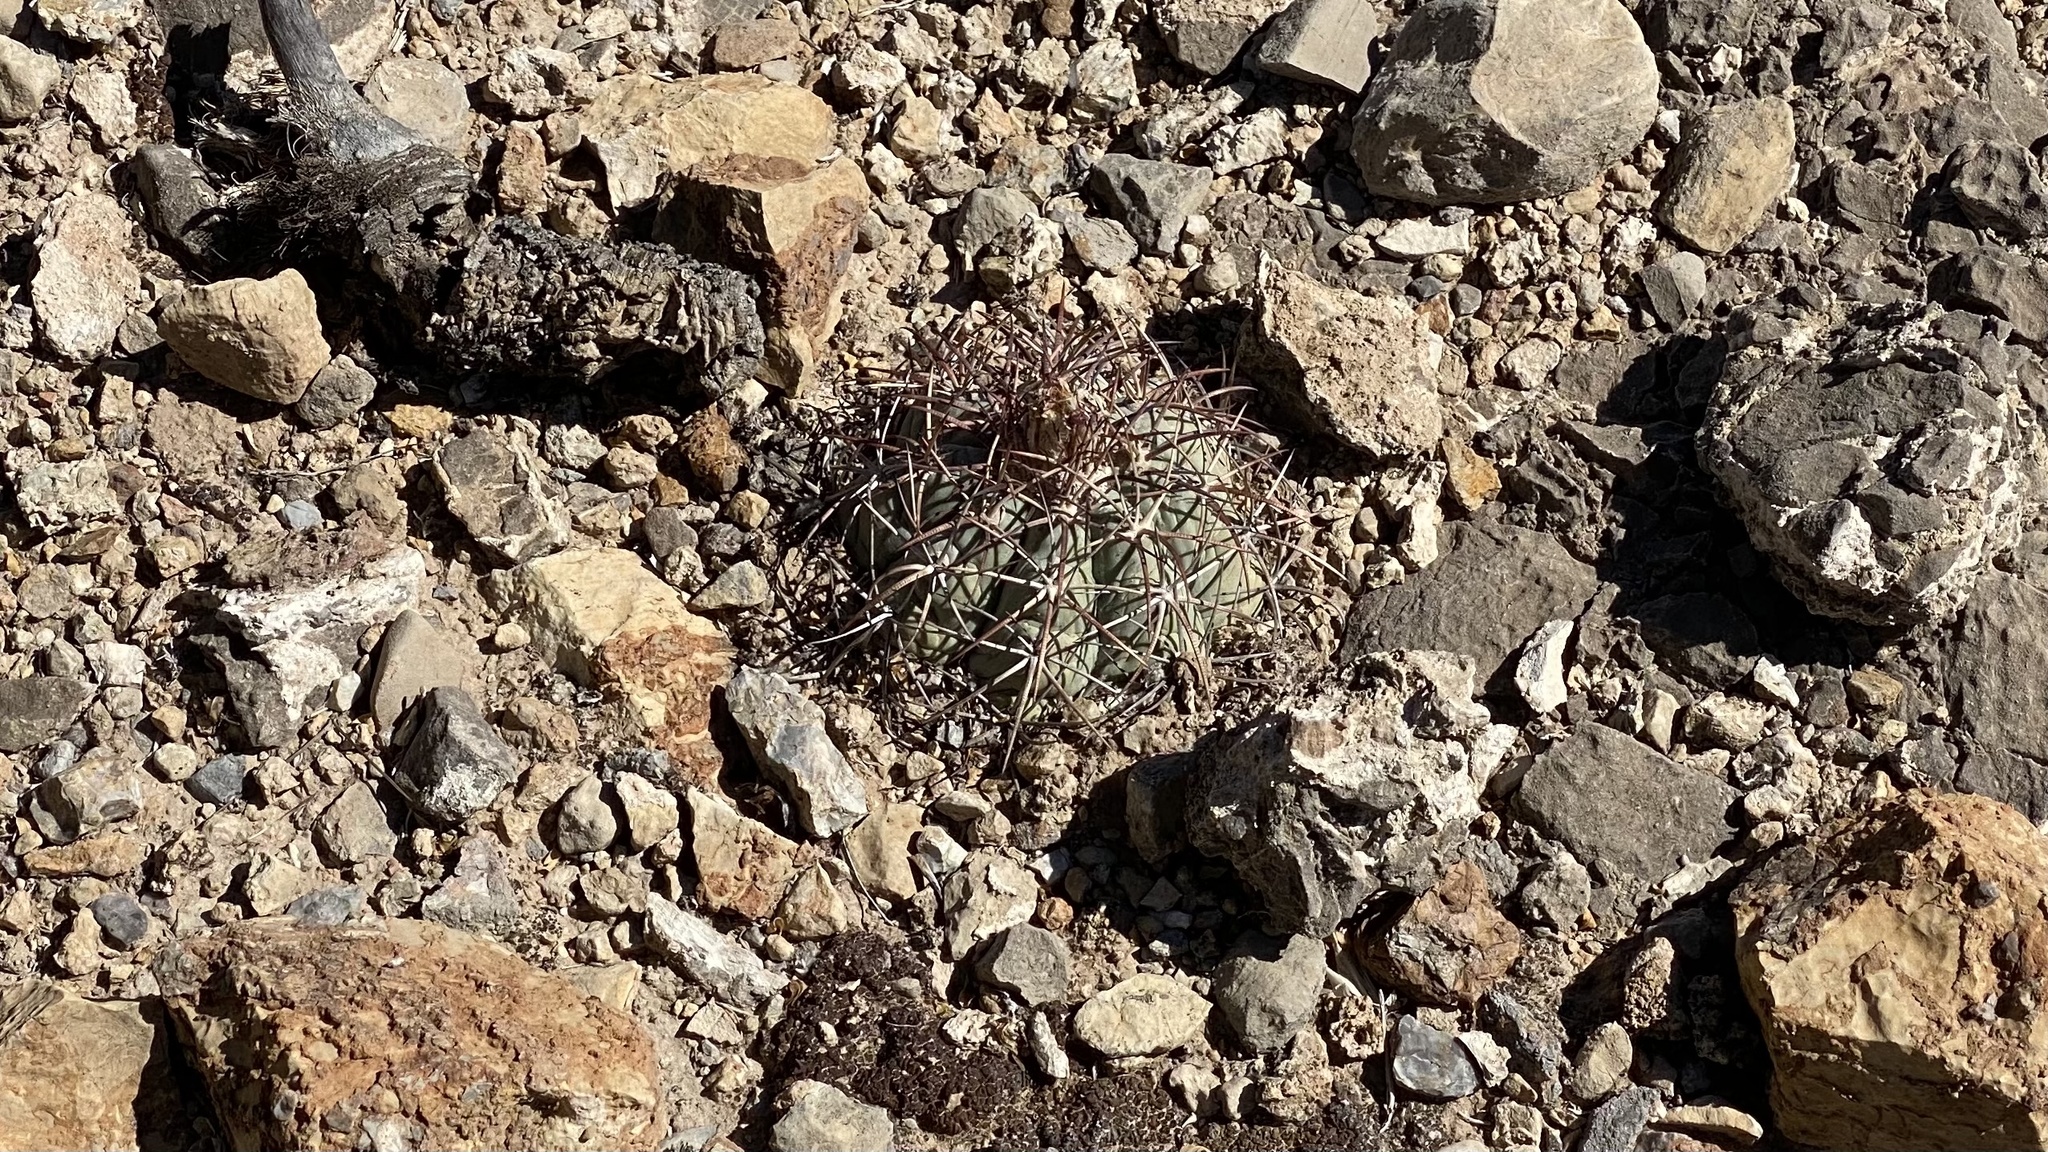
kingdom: Plantae
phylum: Tracheophyta
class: Magnoliopsida
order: Caryophyllales
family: Cactaceae
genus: Echinocactus
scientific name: Echinocactus horizonthalonius
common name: Devilshead
